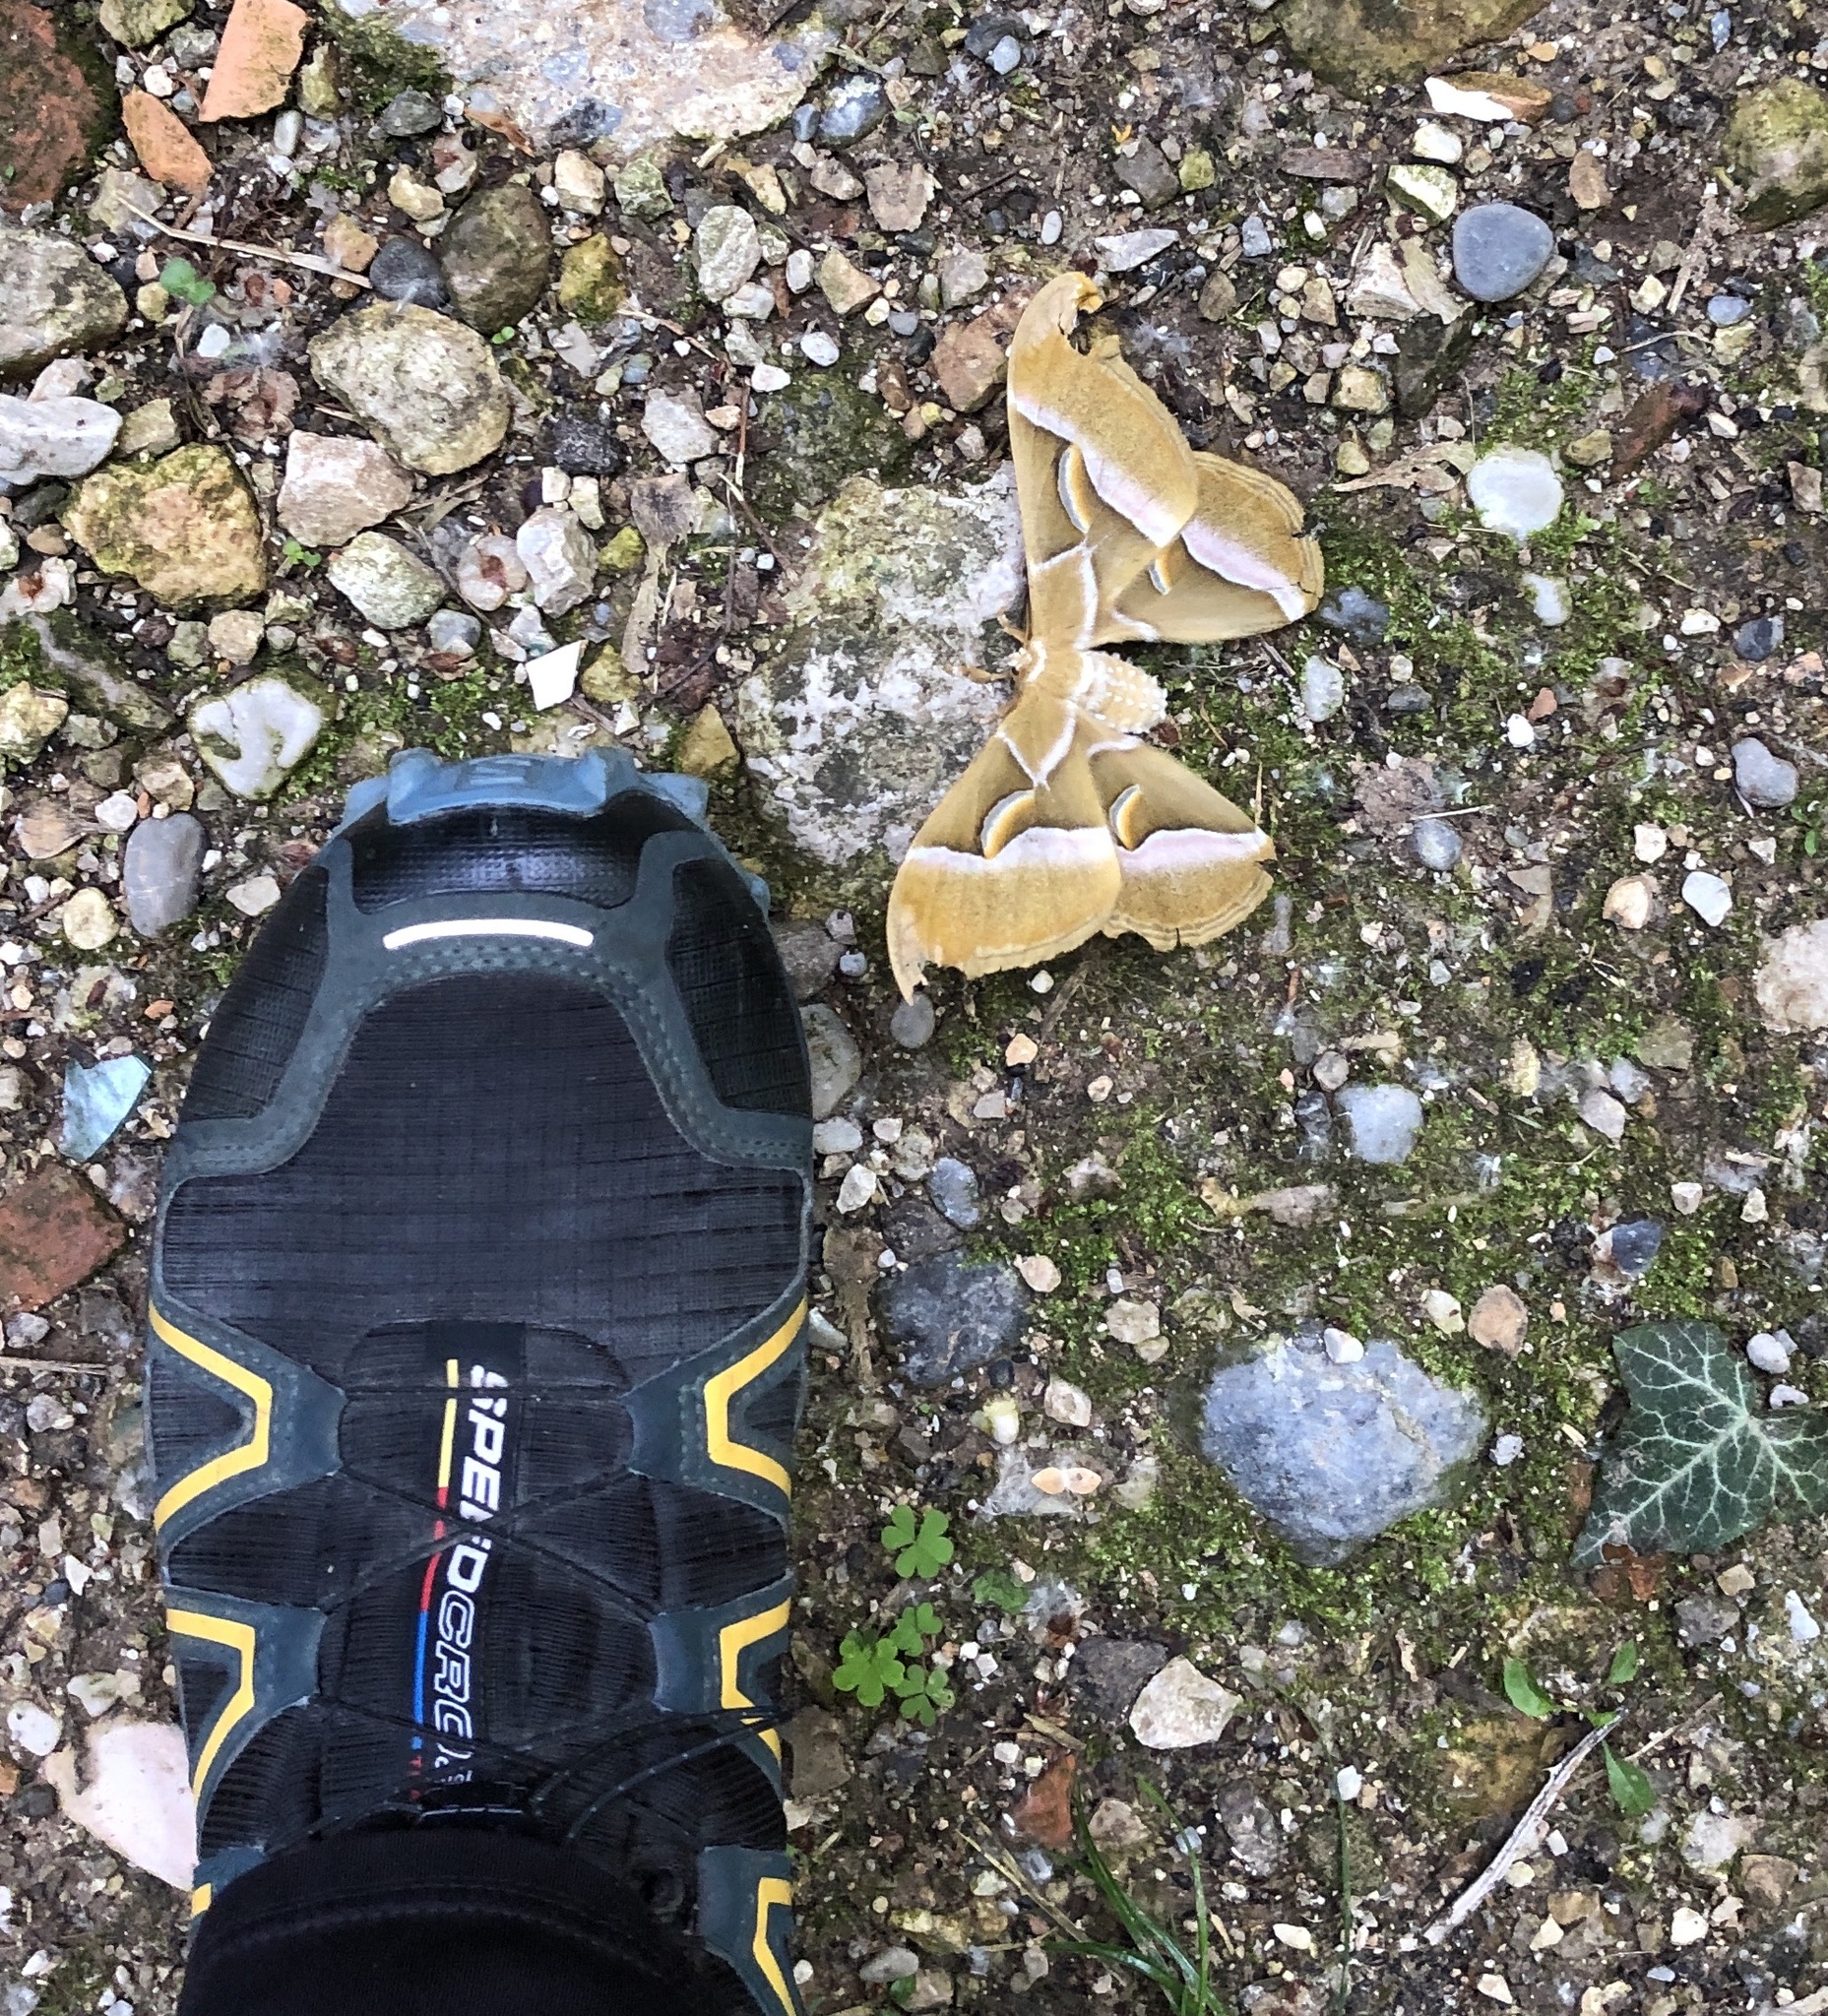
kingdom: Animalia
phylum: Arthropoda
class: Insecta
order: Lepidoptera
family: Saturniidae
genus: Samia
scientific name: Samia cynthia
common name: Ailanthus silkmoth
